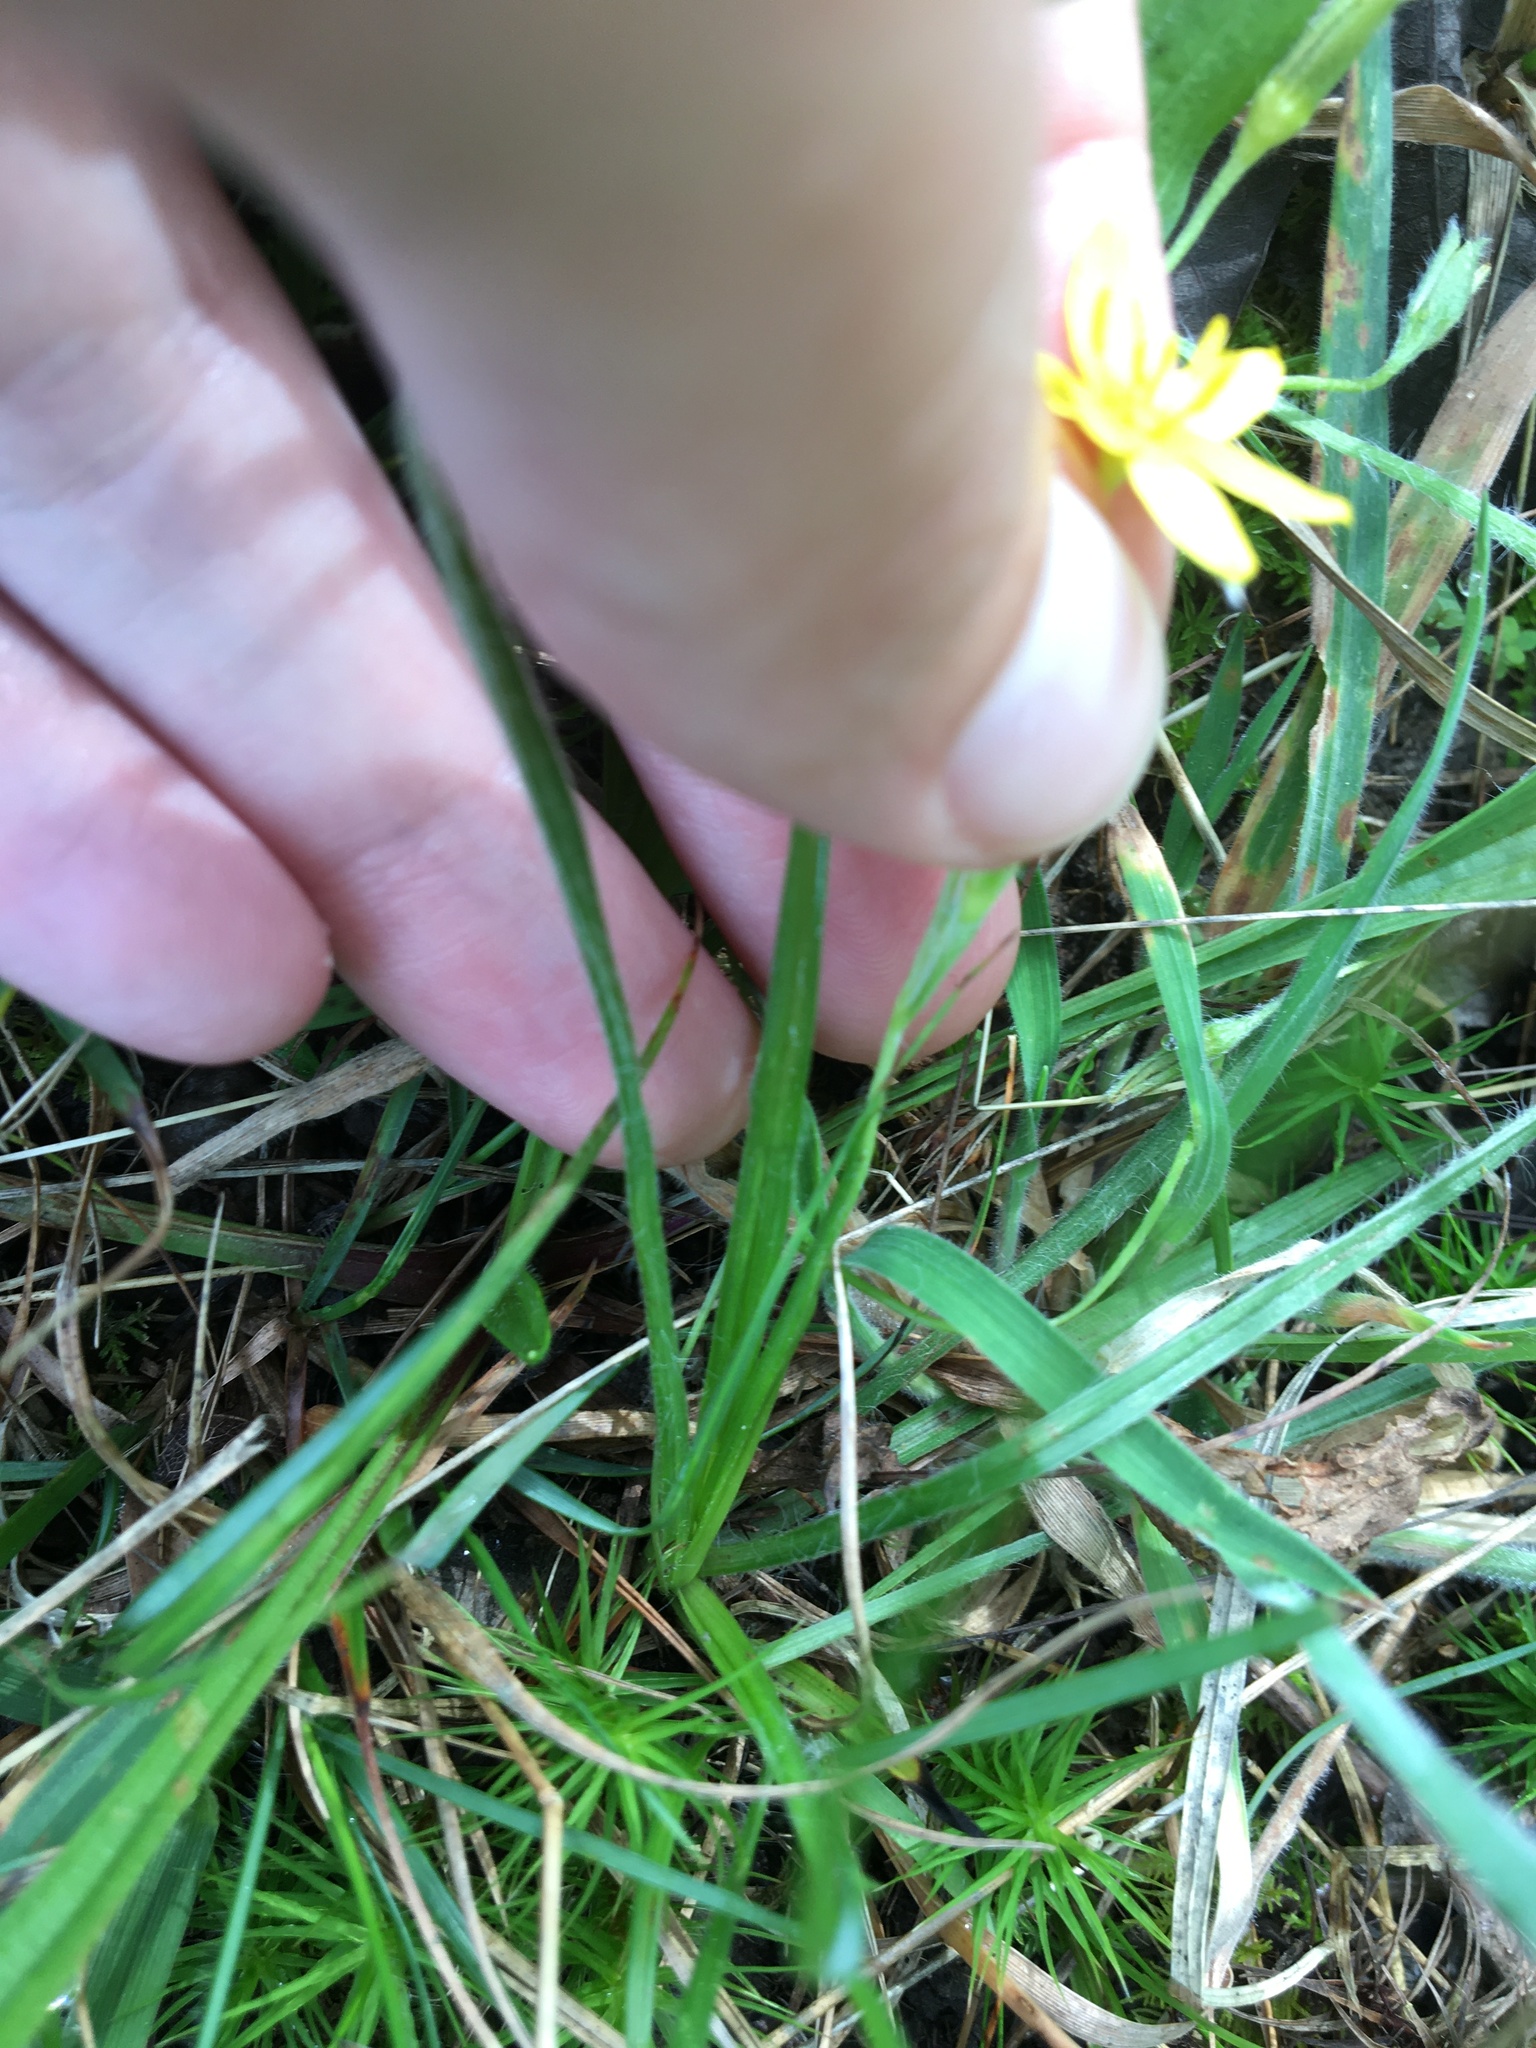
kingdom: Plantae
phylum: Tracheophyta
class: Liliopsida
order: Asparagales
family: Hypoxidaceae
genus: Hypoxis
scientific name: Hypoxis hirsuta
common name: Common goldstar
